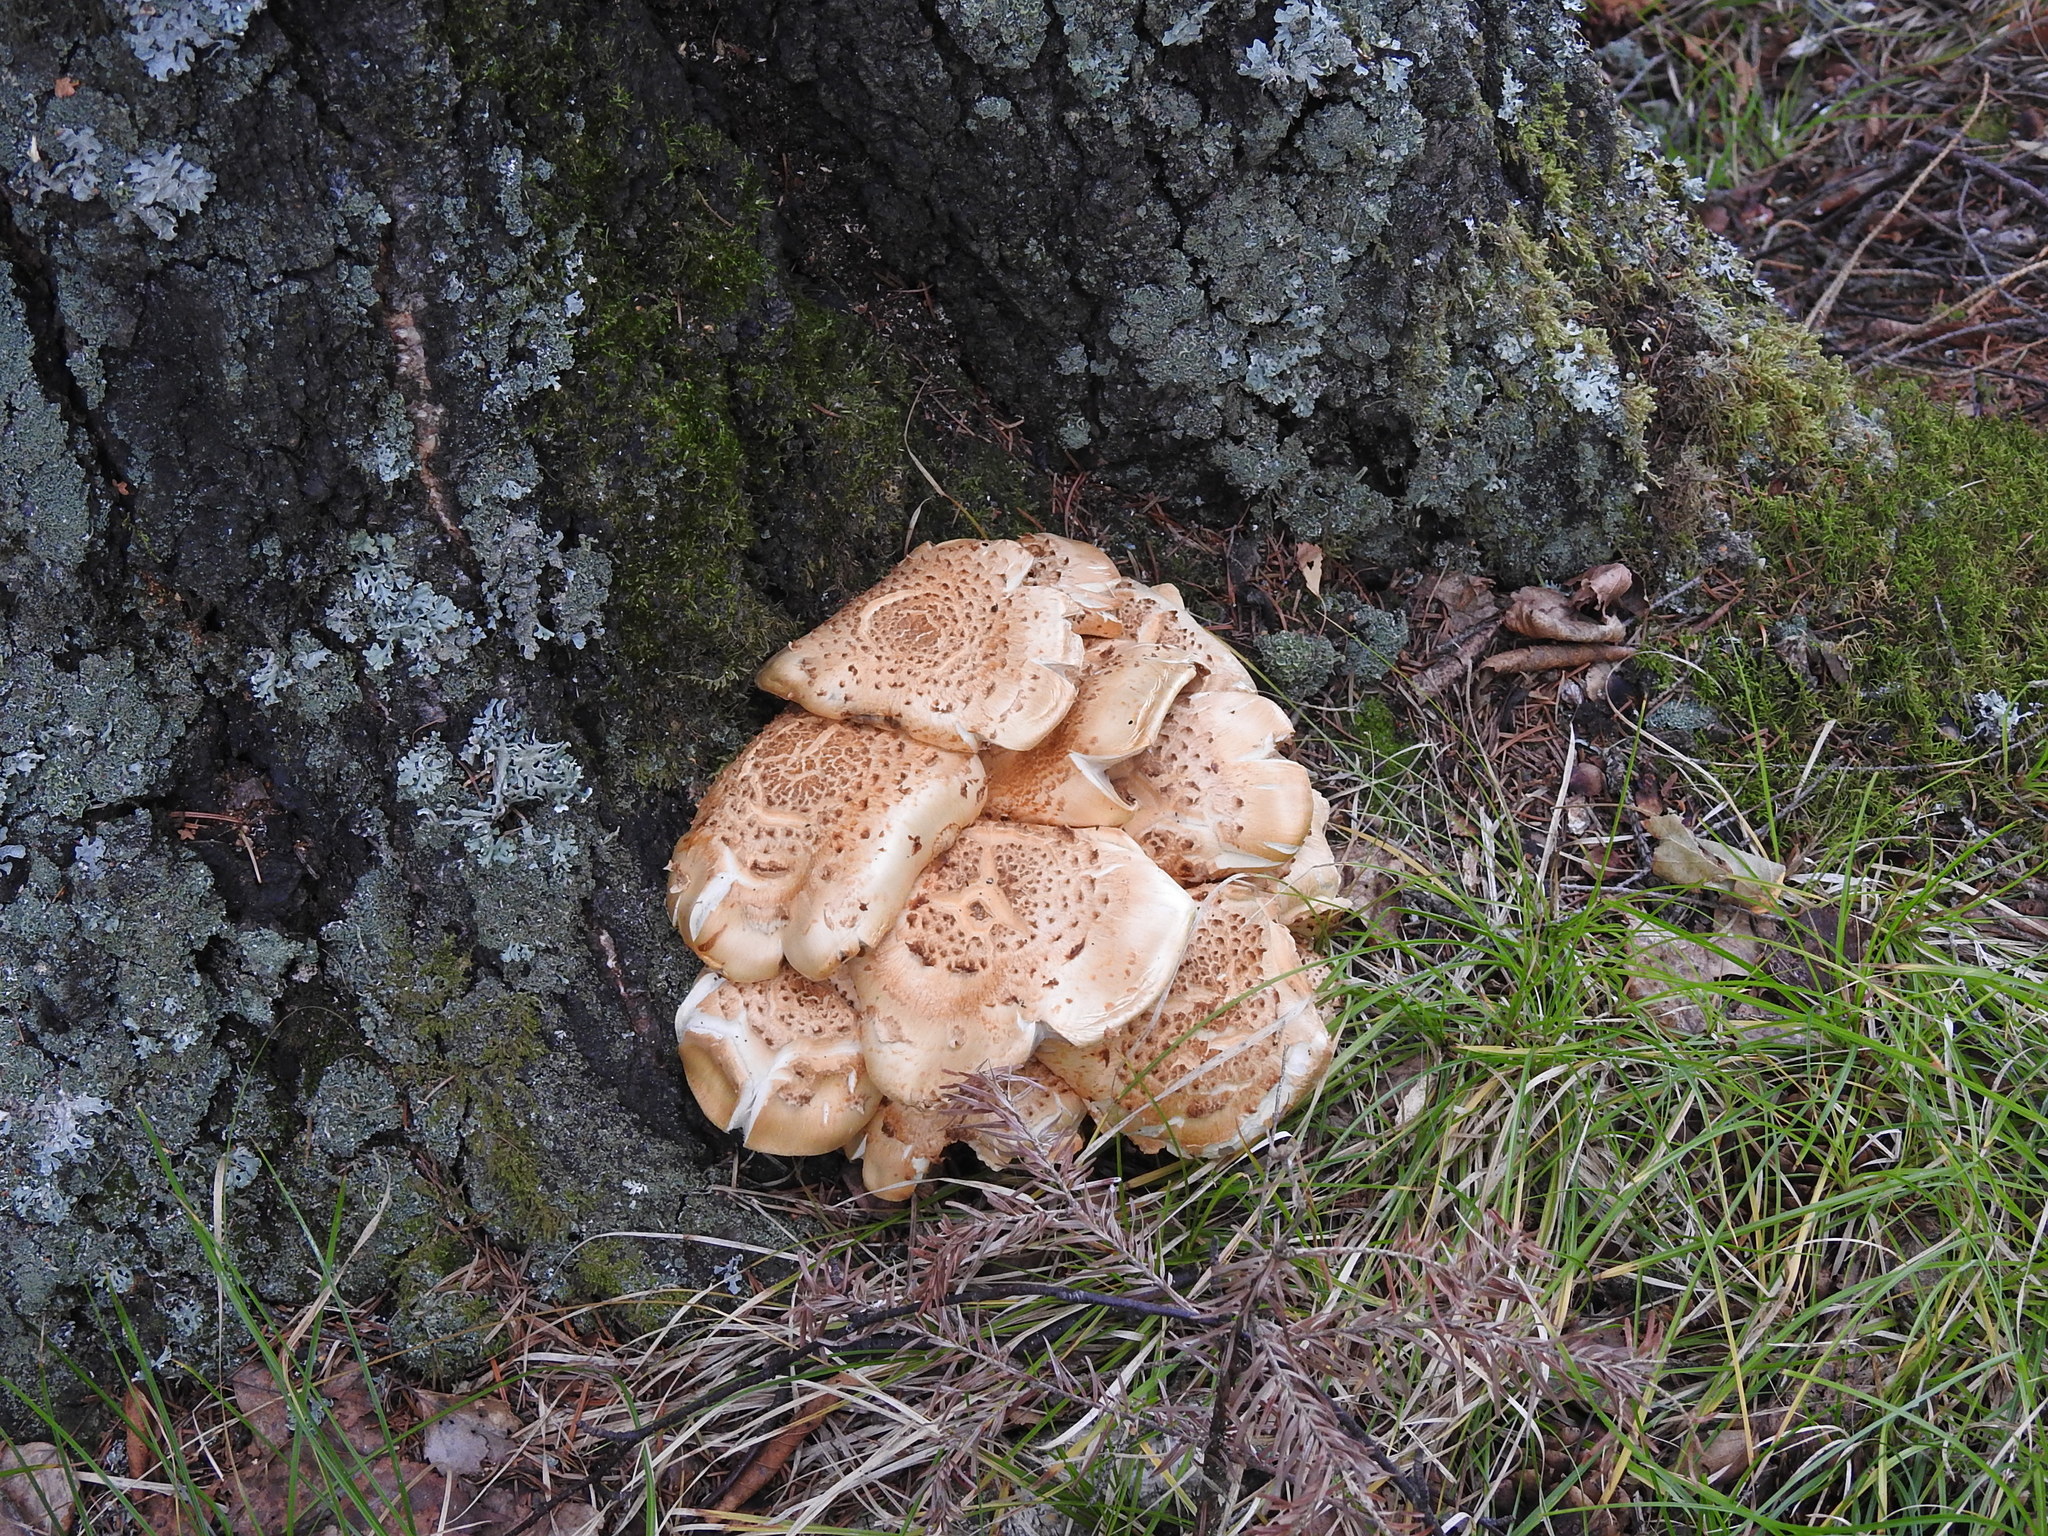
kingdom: Fungi
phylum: Basidiomycota
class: Agaricomycetes
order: Gloeophyllales
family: Gloeophyllaceae
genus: Neolentinus
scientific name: Neolentinus lepideus
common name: Scaly sawgill
